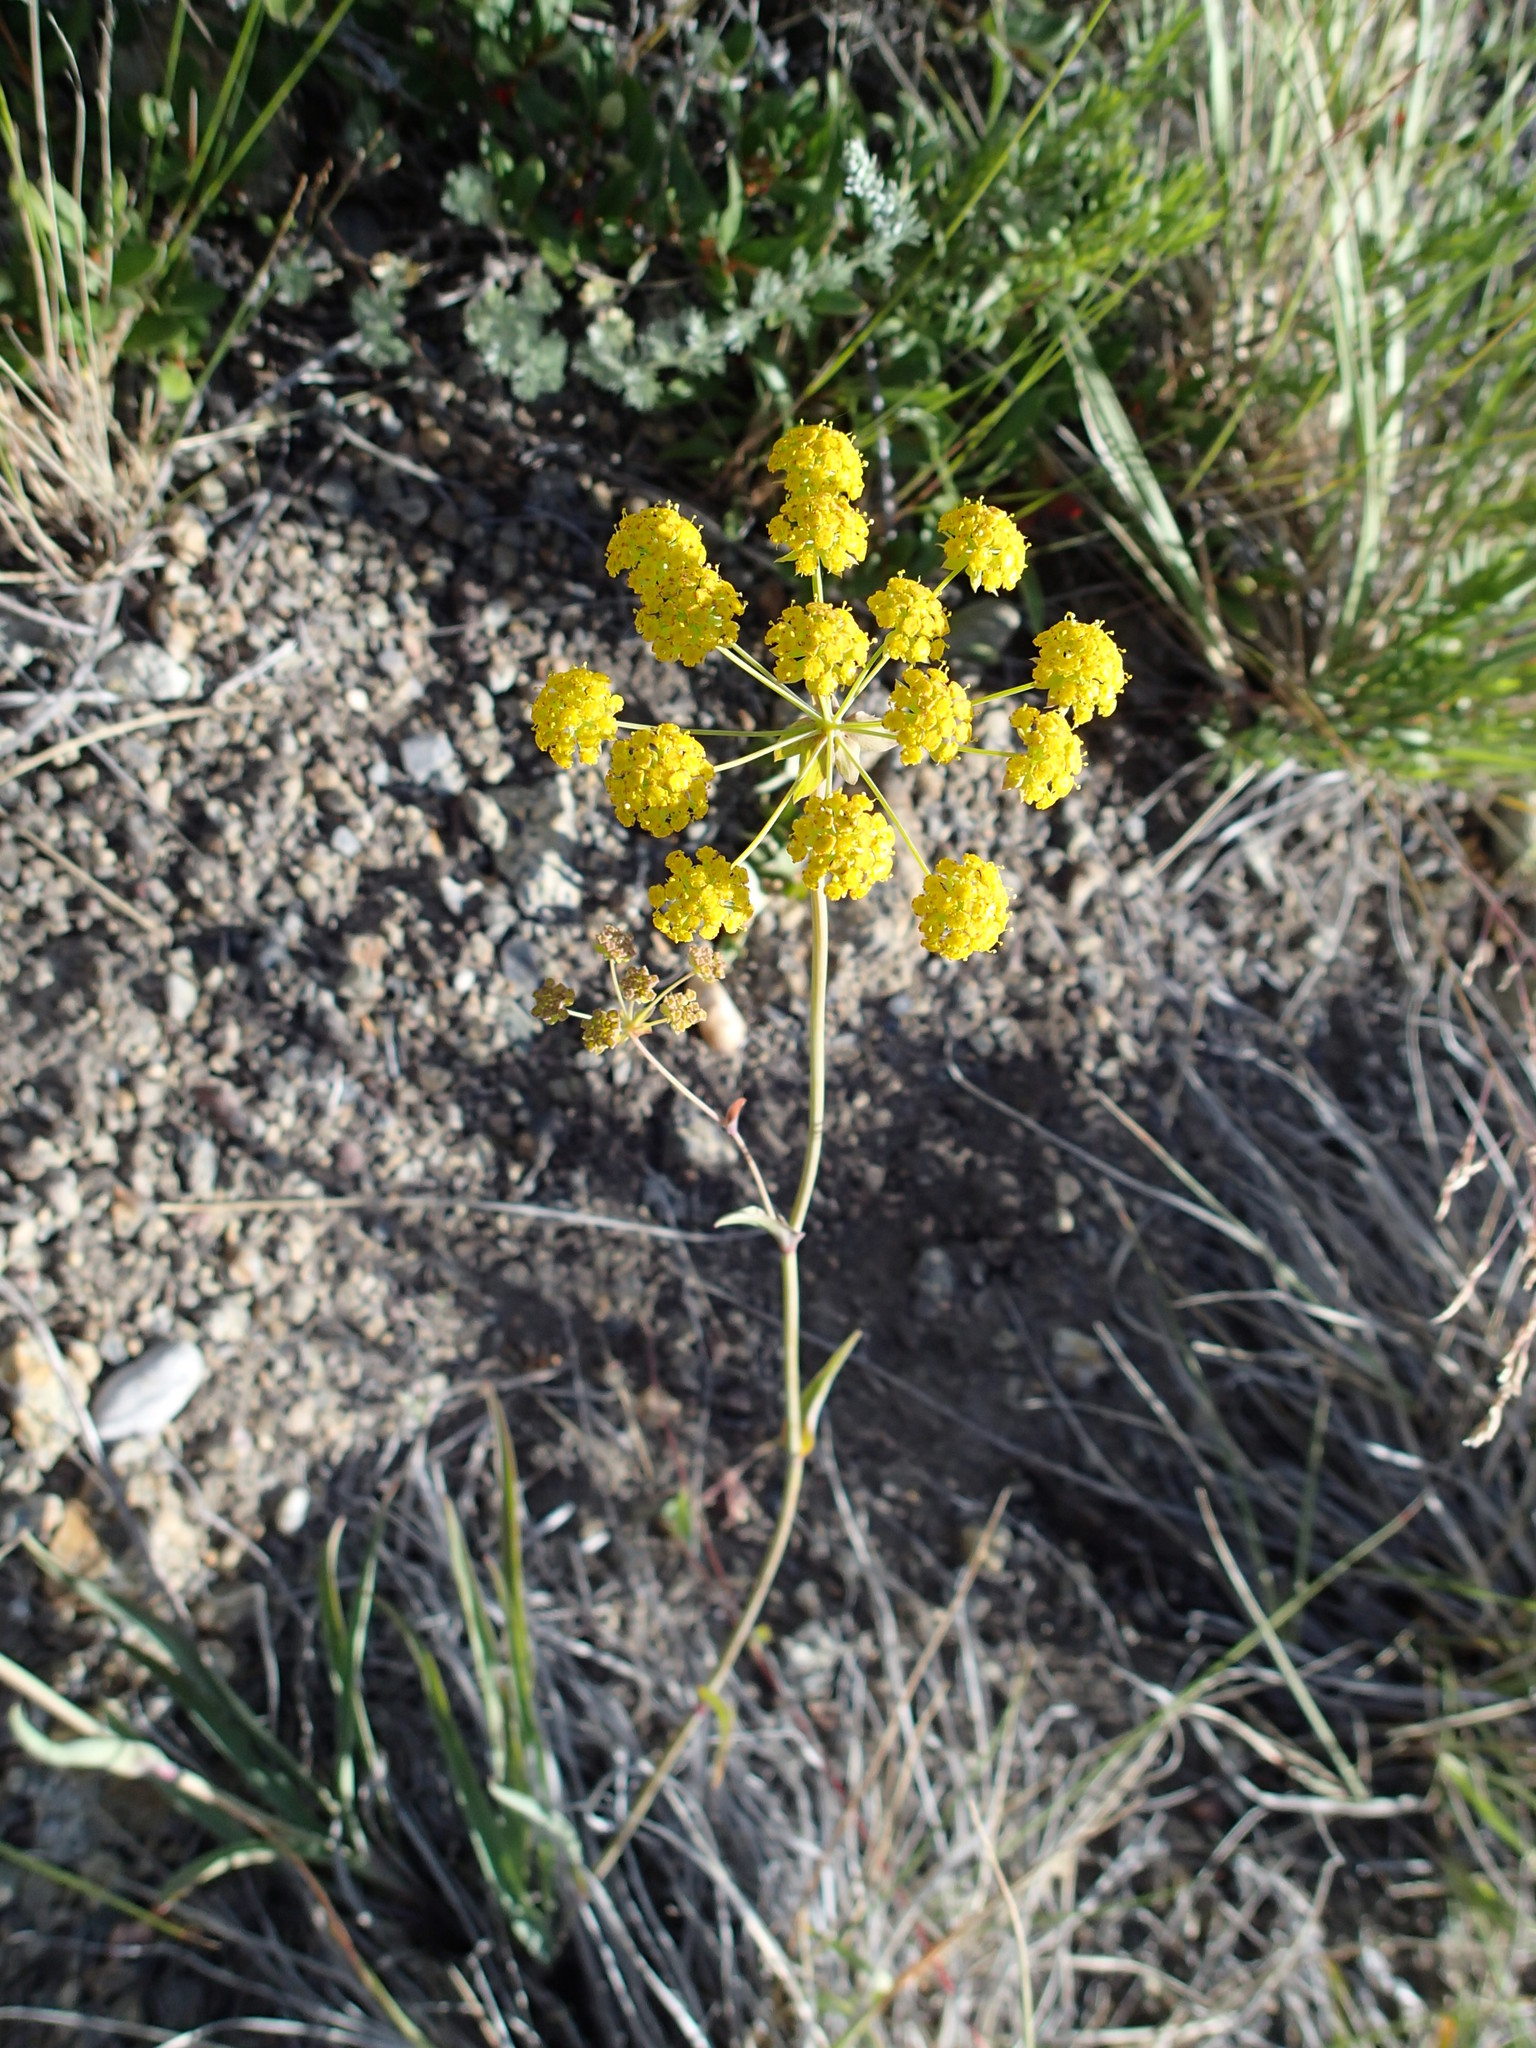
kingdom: Plantae
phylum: Tracheophyta
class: Magnoliopsida
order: Apiales
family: Apiaceae
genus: Bupleurum
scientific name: Bupleurum americanum
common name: American thoroughwax
